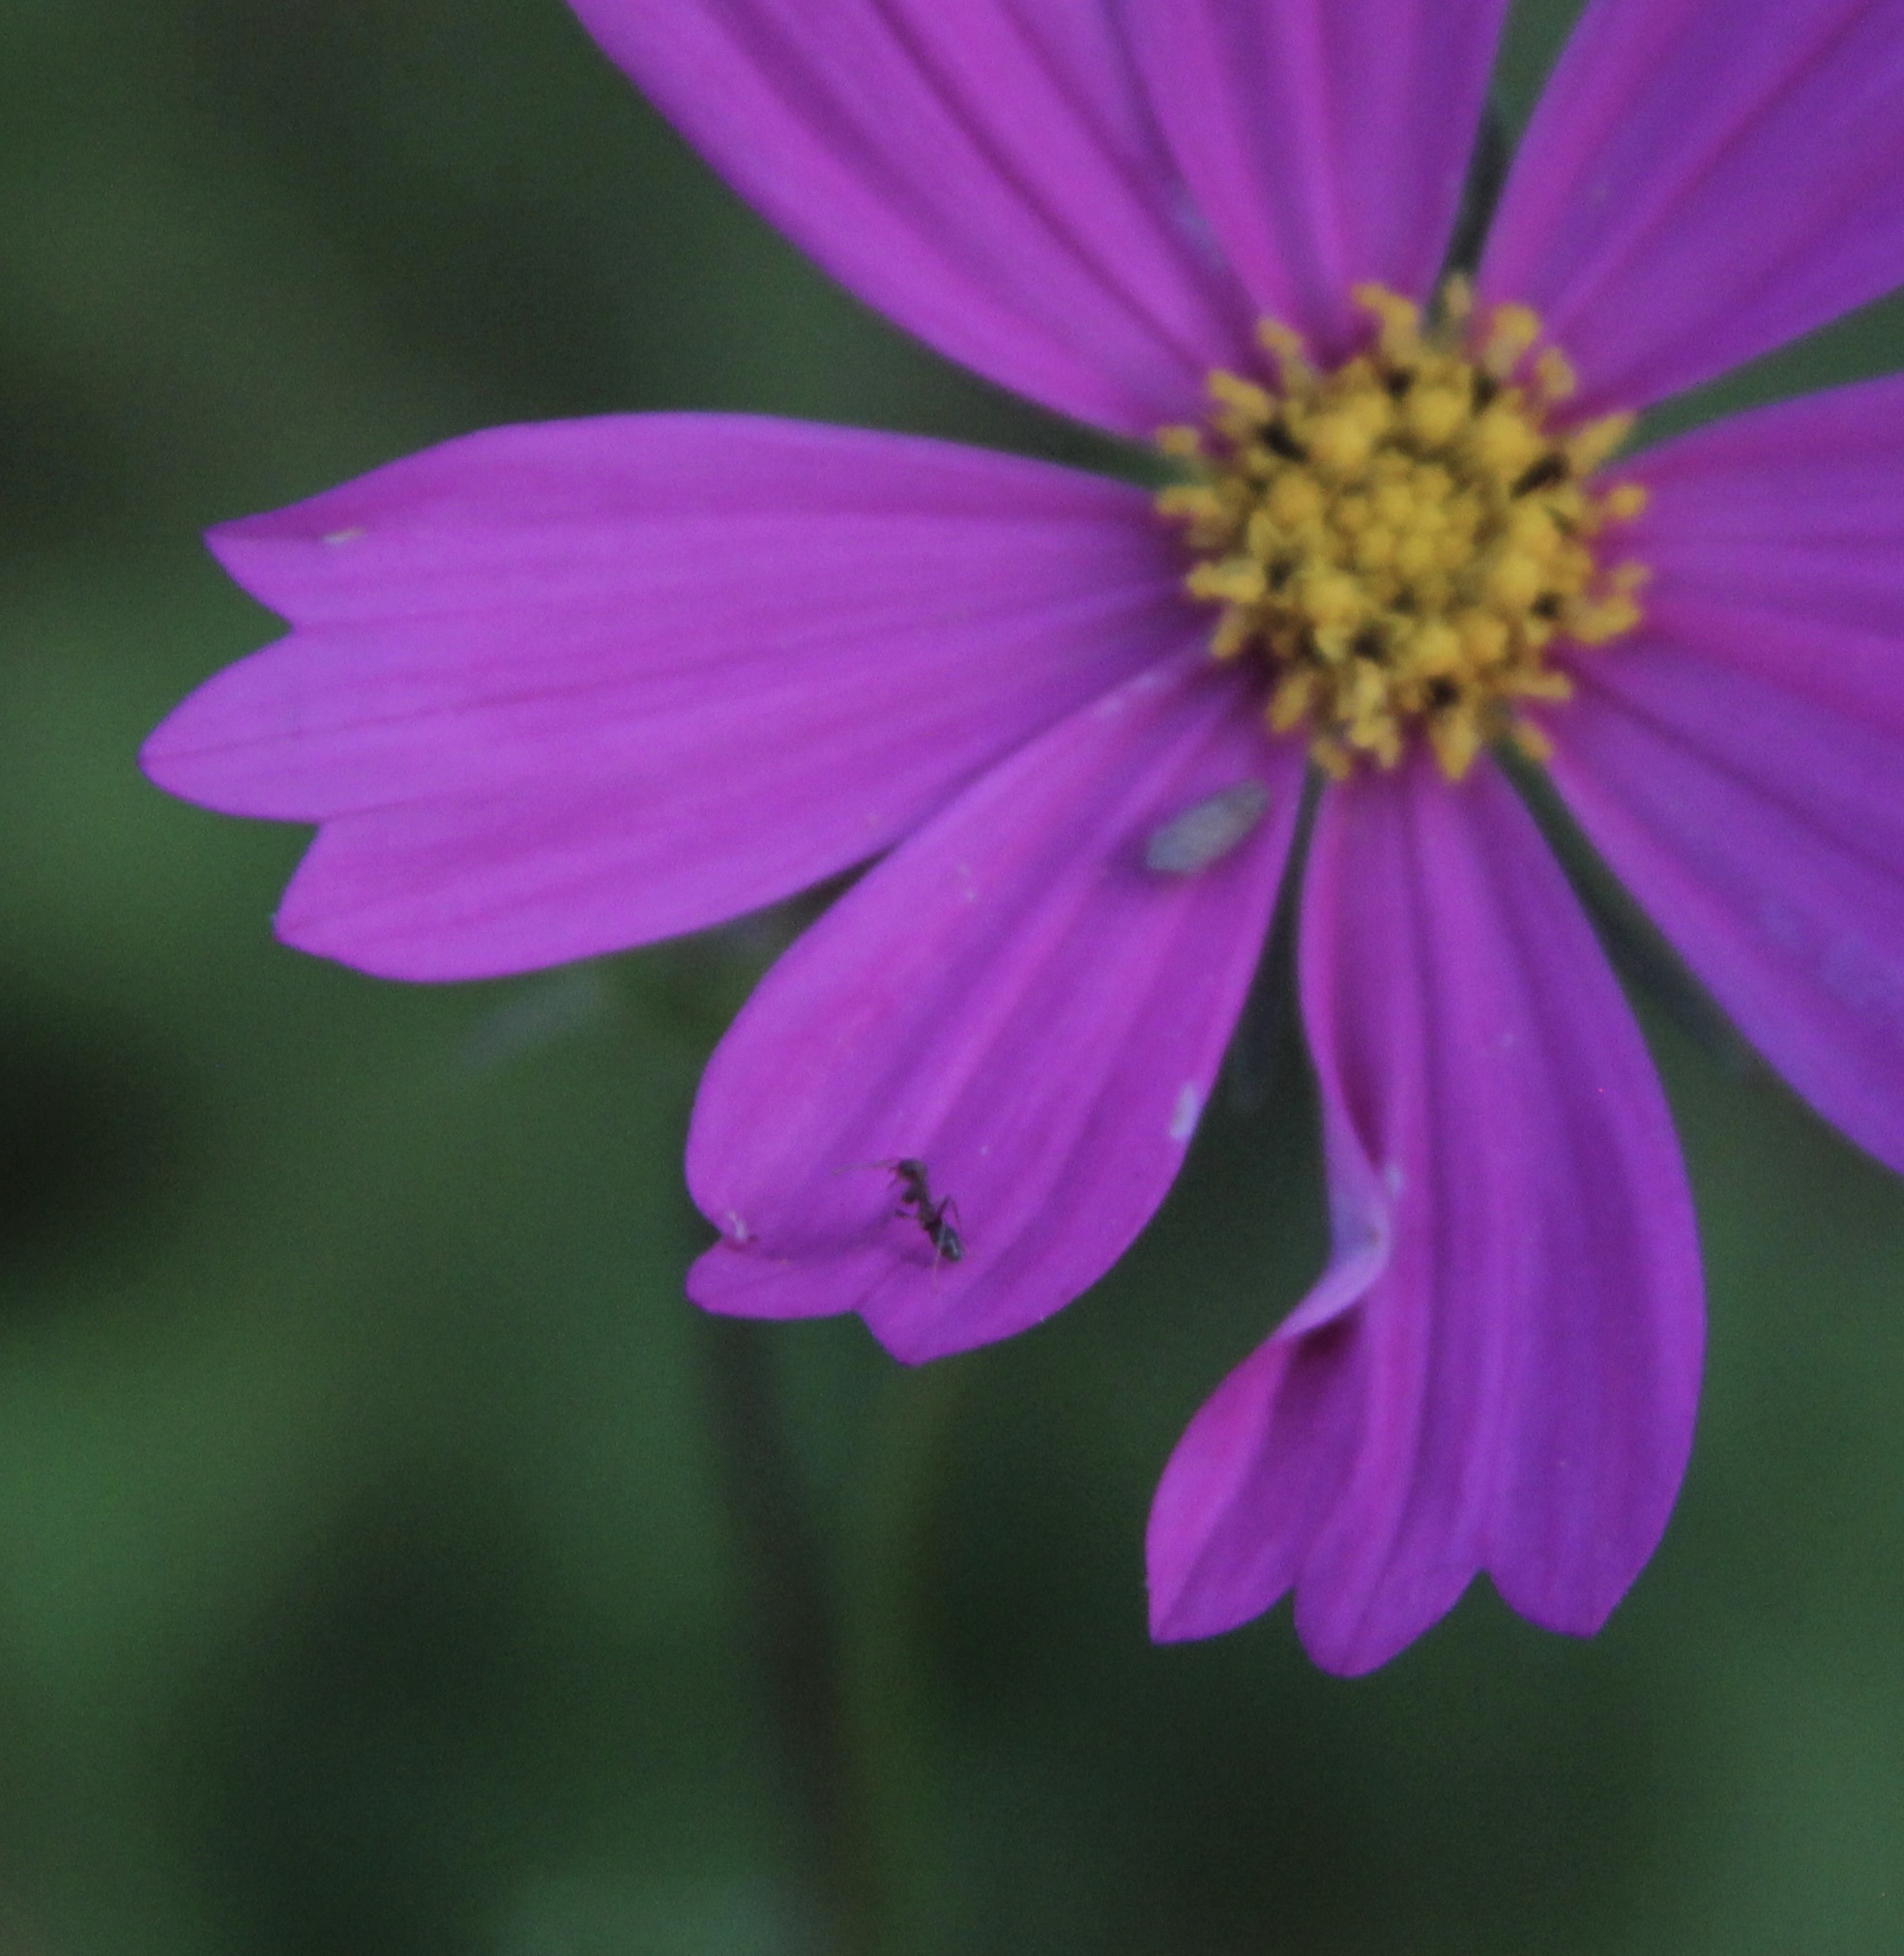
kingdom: Animalia
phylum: Arthropoda
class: Insecta
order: Hymenoptera
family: Formicidae
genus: Linepithema
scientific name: Linepithema humile
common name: Argentine ant
